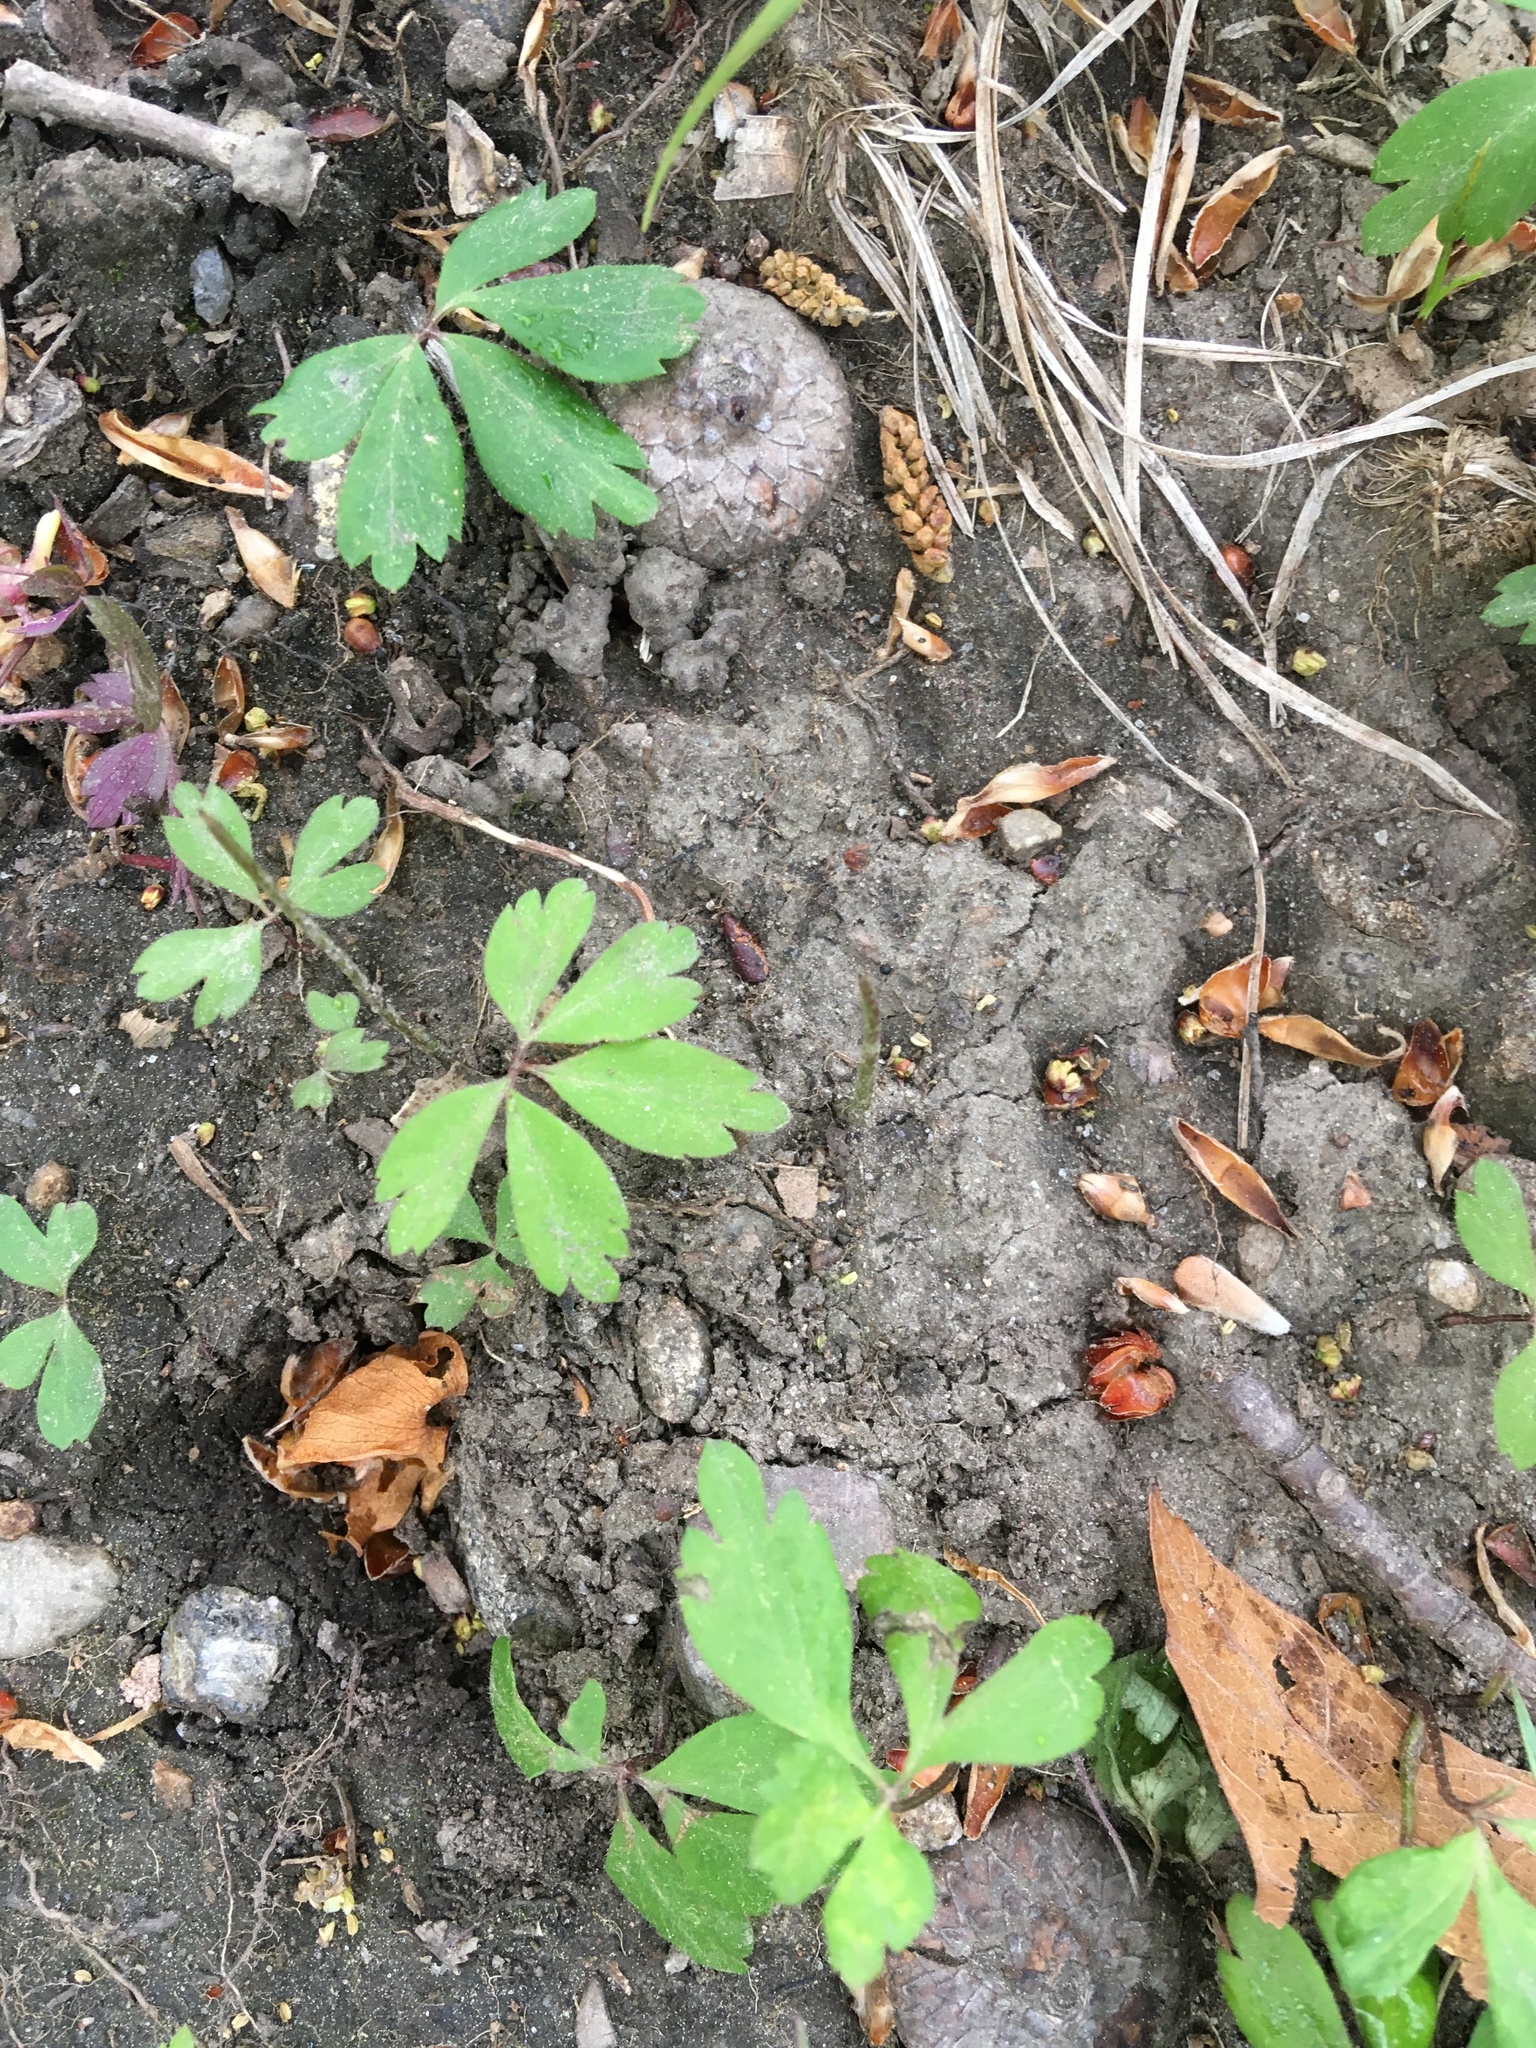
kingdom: Plantae
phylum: Tracheophyta
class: Magnoliopsida
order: Ranunculales
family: Ranunculaceae
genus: Anemone
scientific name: Anemone quinquefolia
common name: Wood anemone
